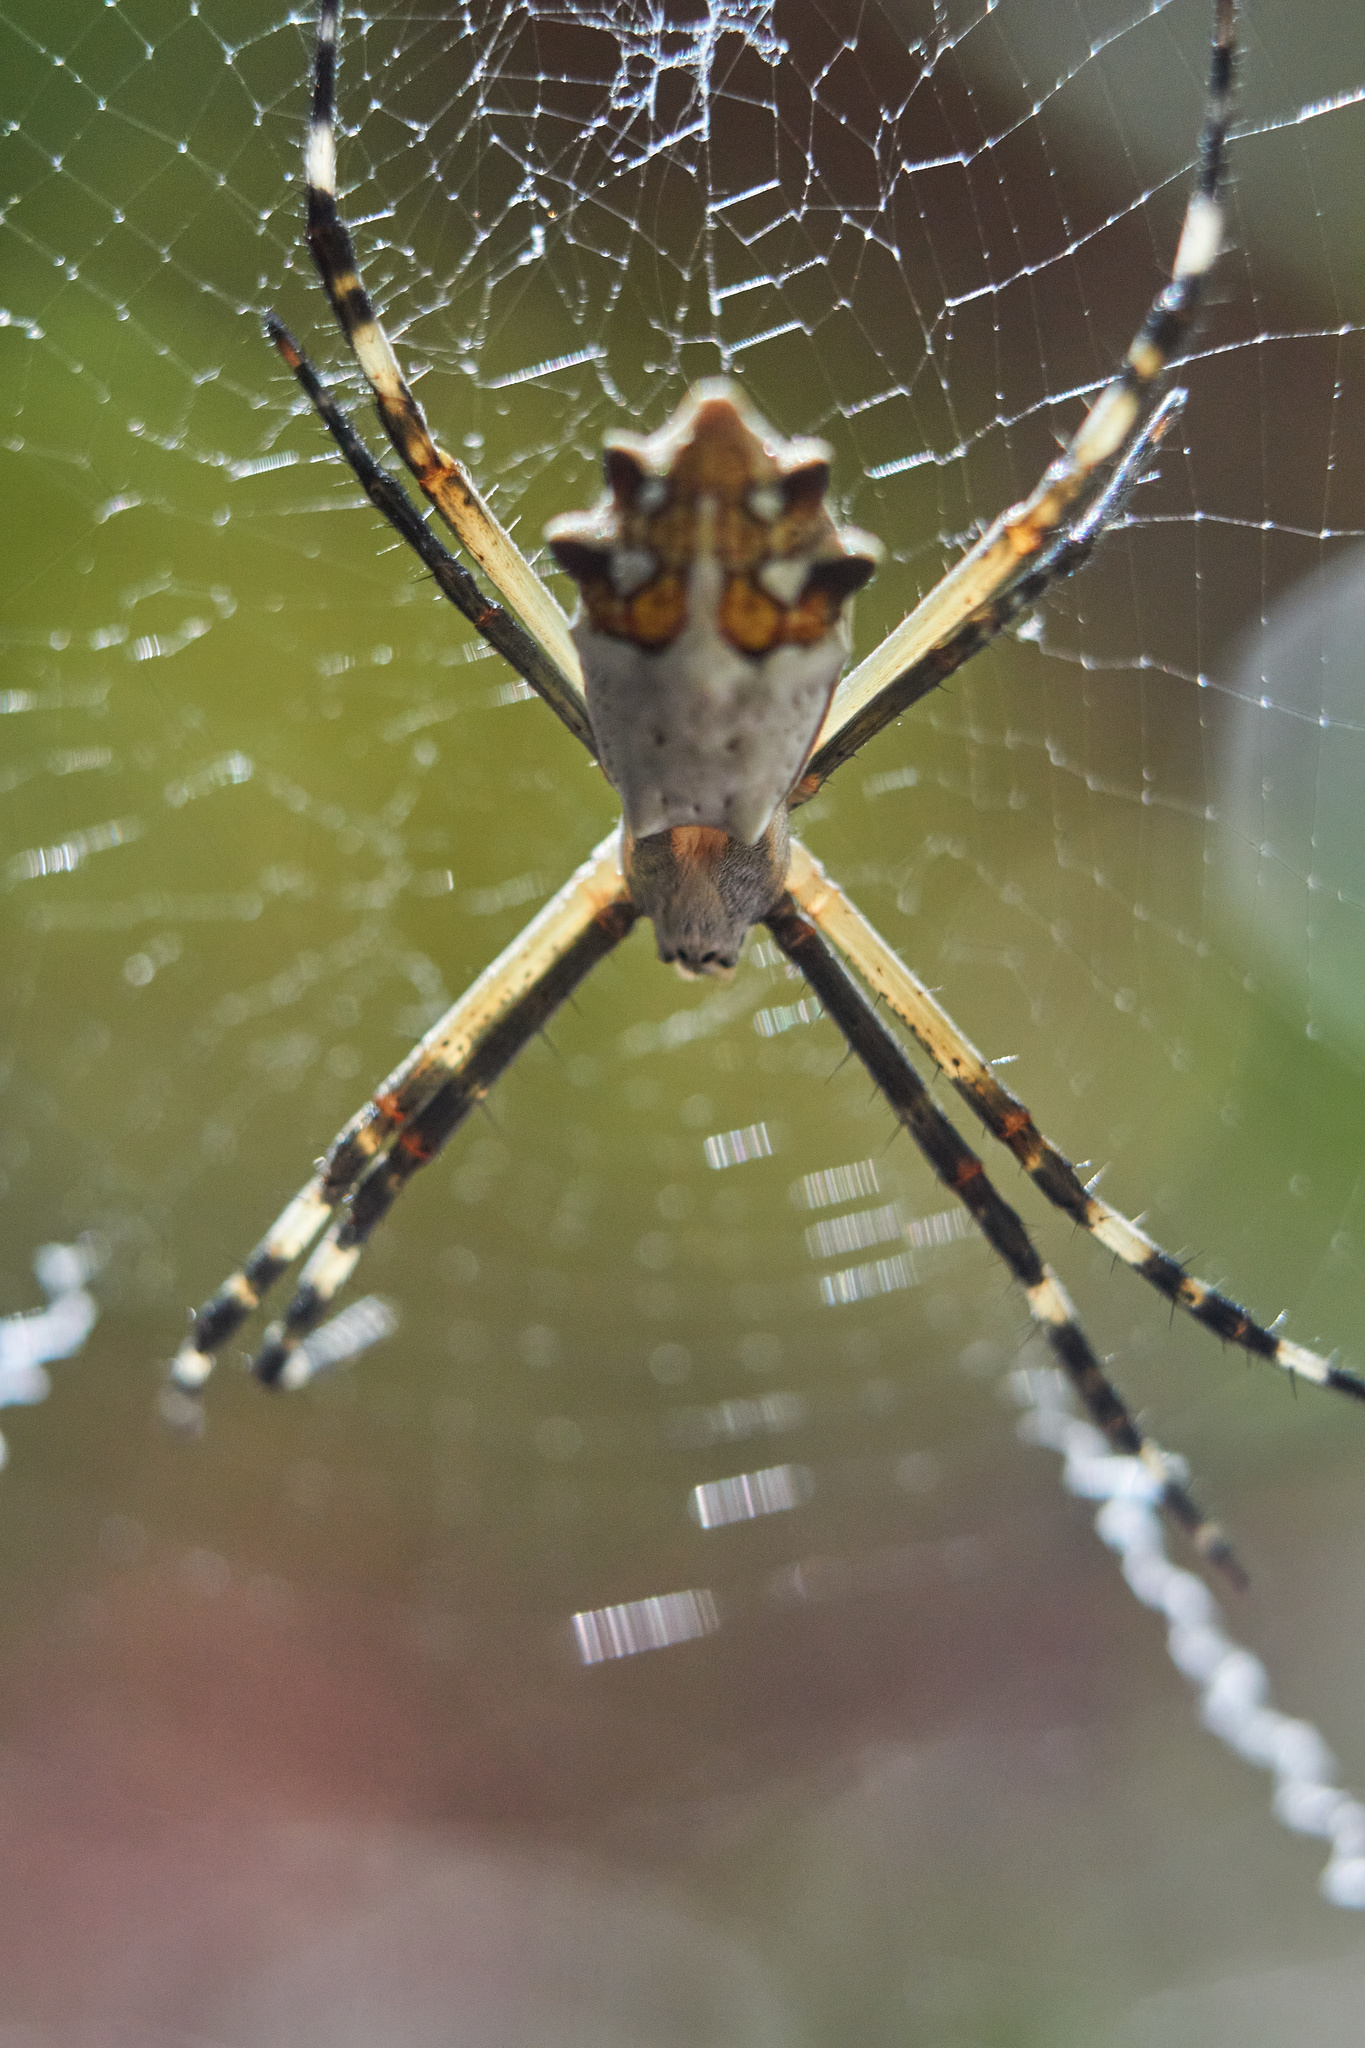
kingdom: Animalia
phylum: Arthropoda
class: Arachnida
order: Araneae
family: Araneidae
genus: Argiope
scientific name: Argiope argentata
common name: Orb weavers
